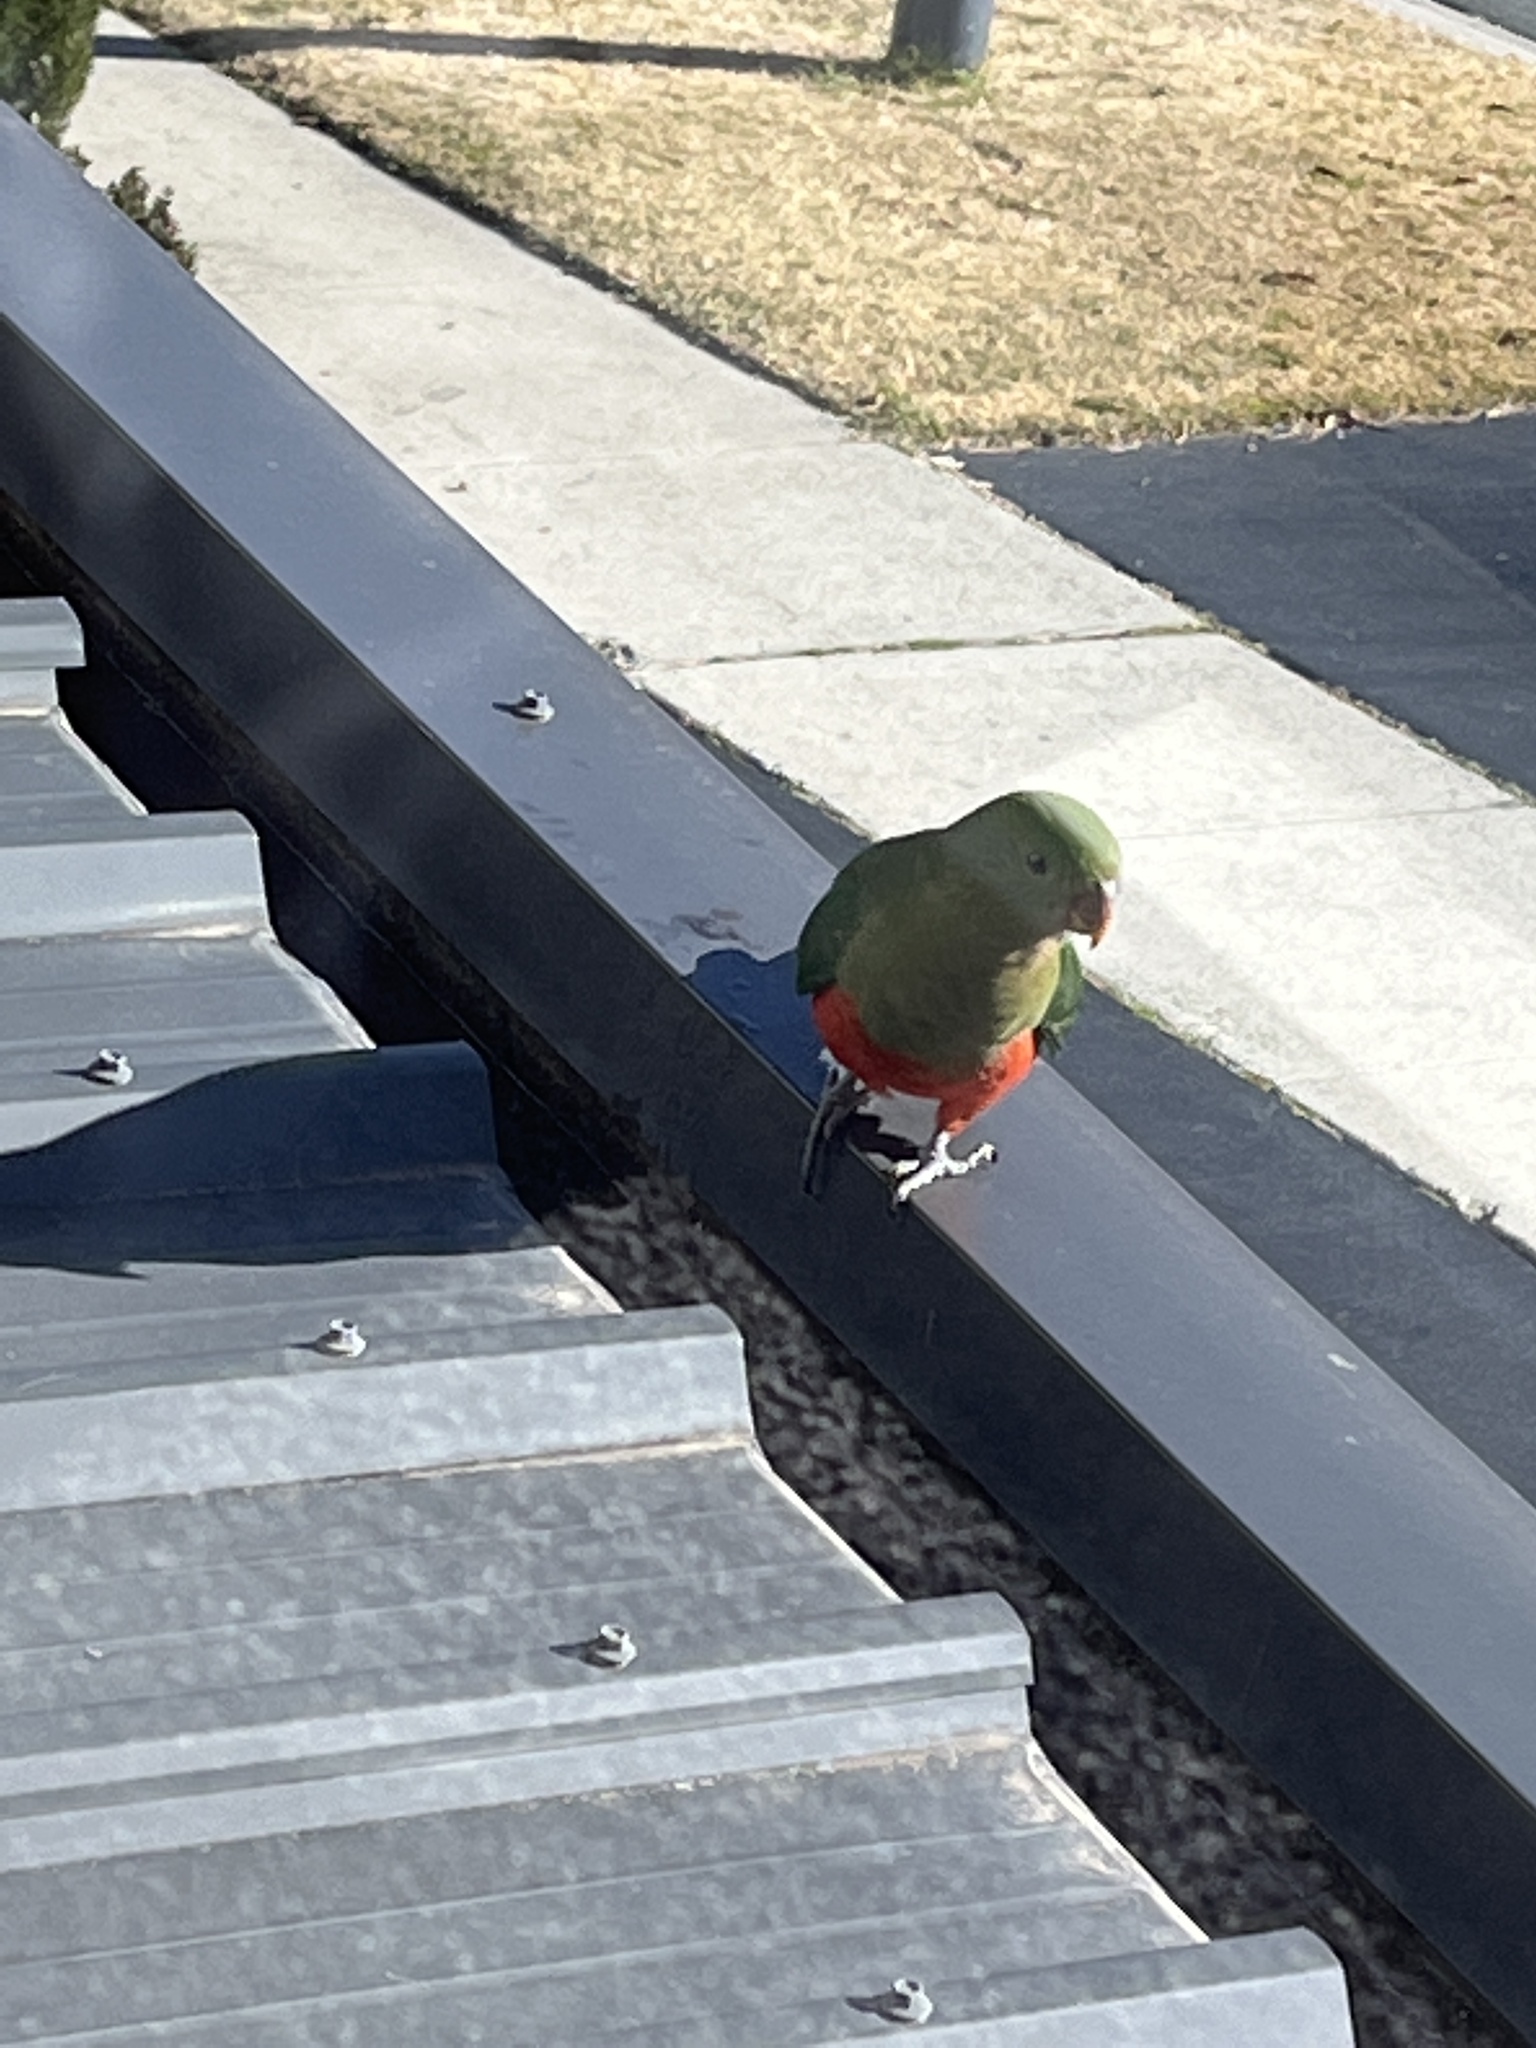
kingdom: Animalia
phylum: Chordata
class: Aves
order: Psittaciformes
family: Psittacidae
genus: Alisterus
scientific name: Alisterus scapularis
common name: Australian king parrot
